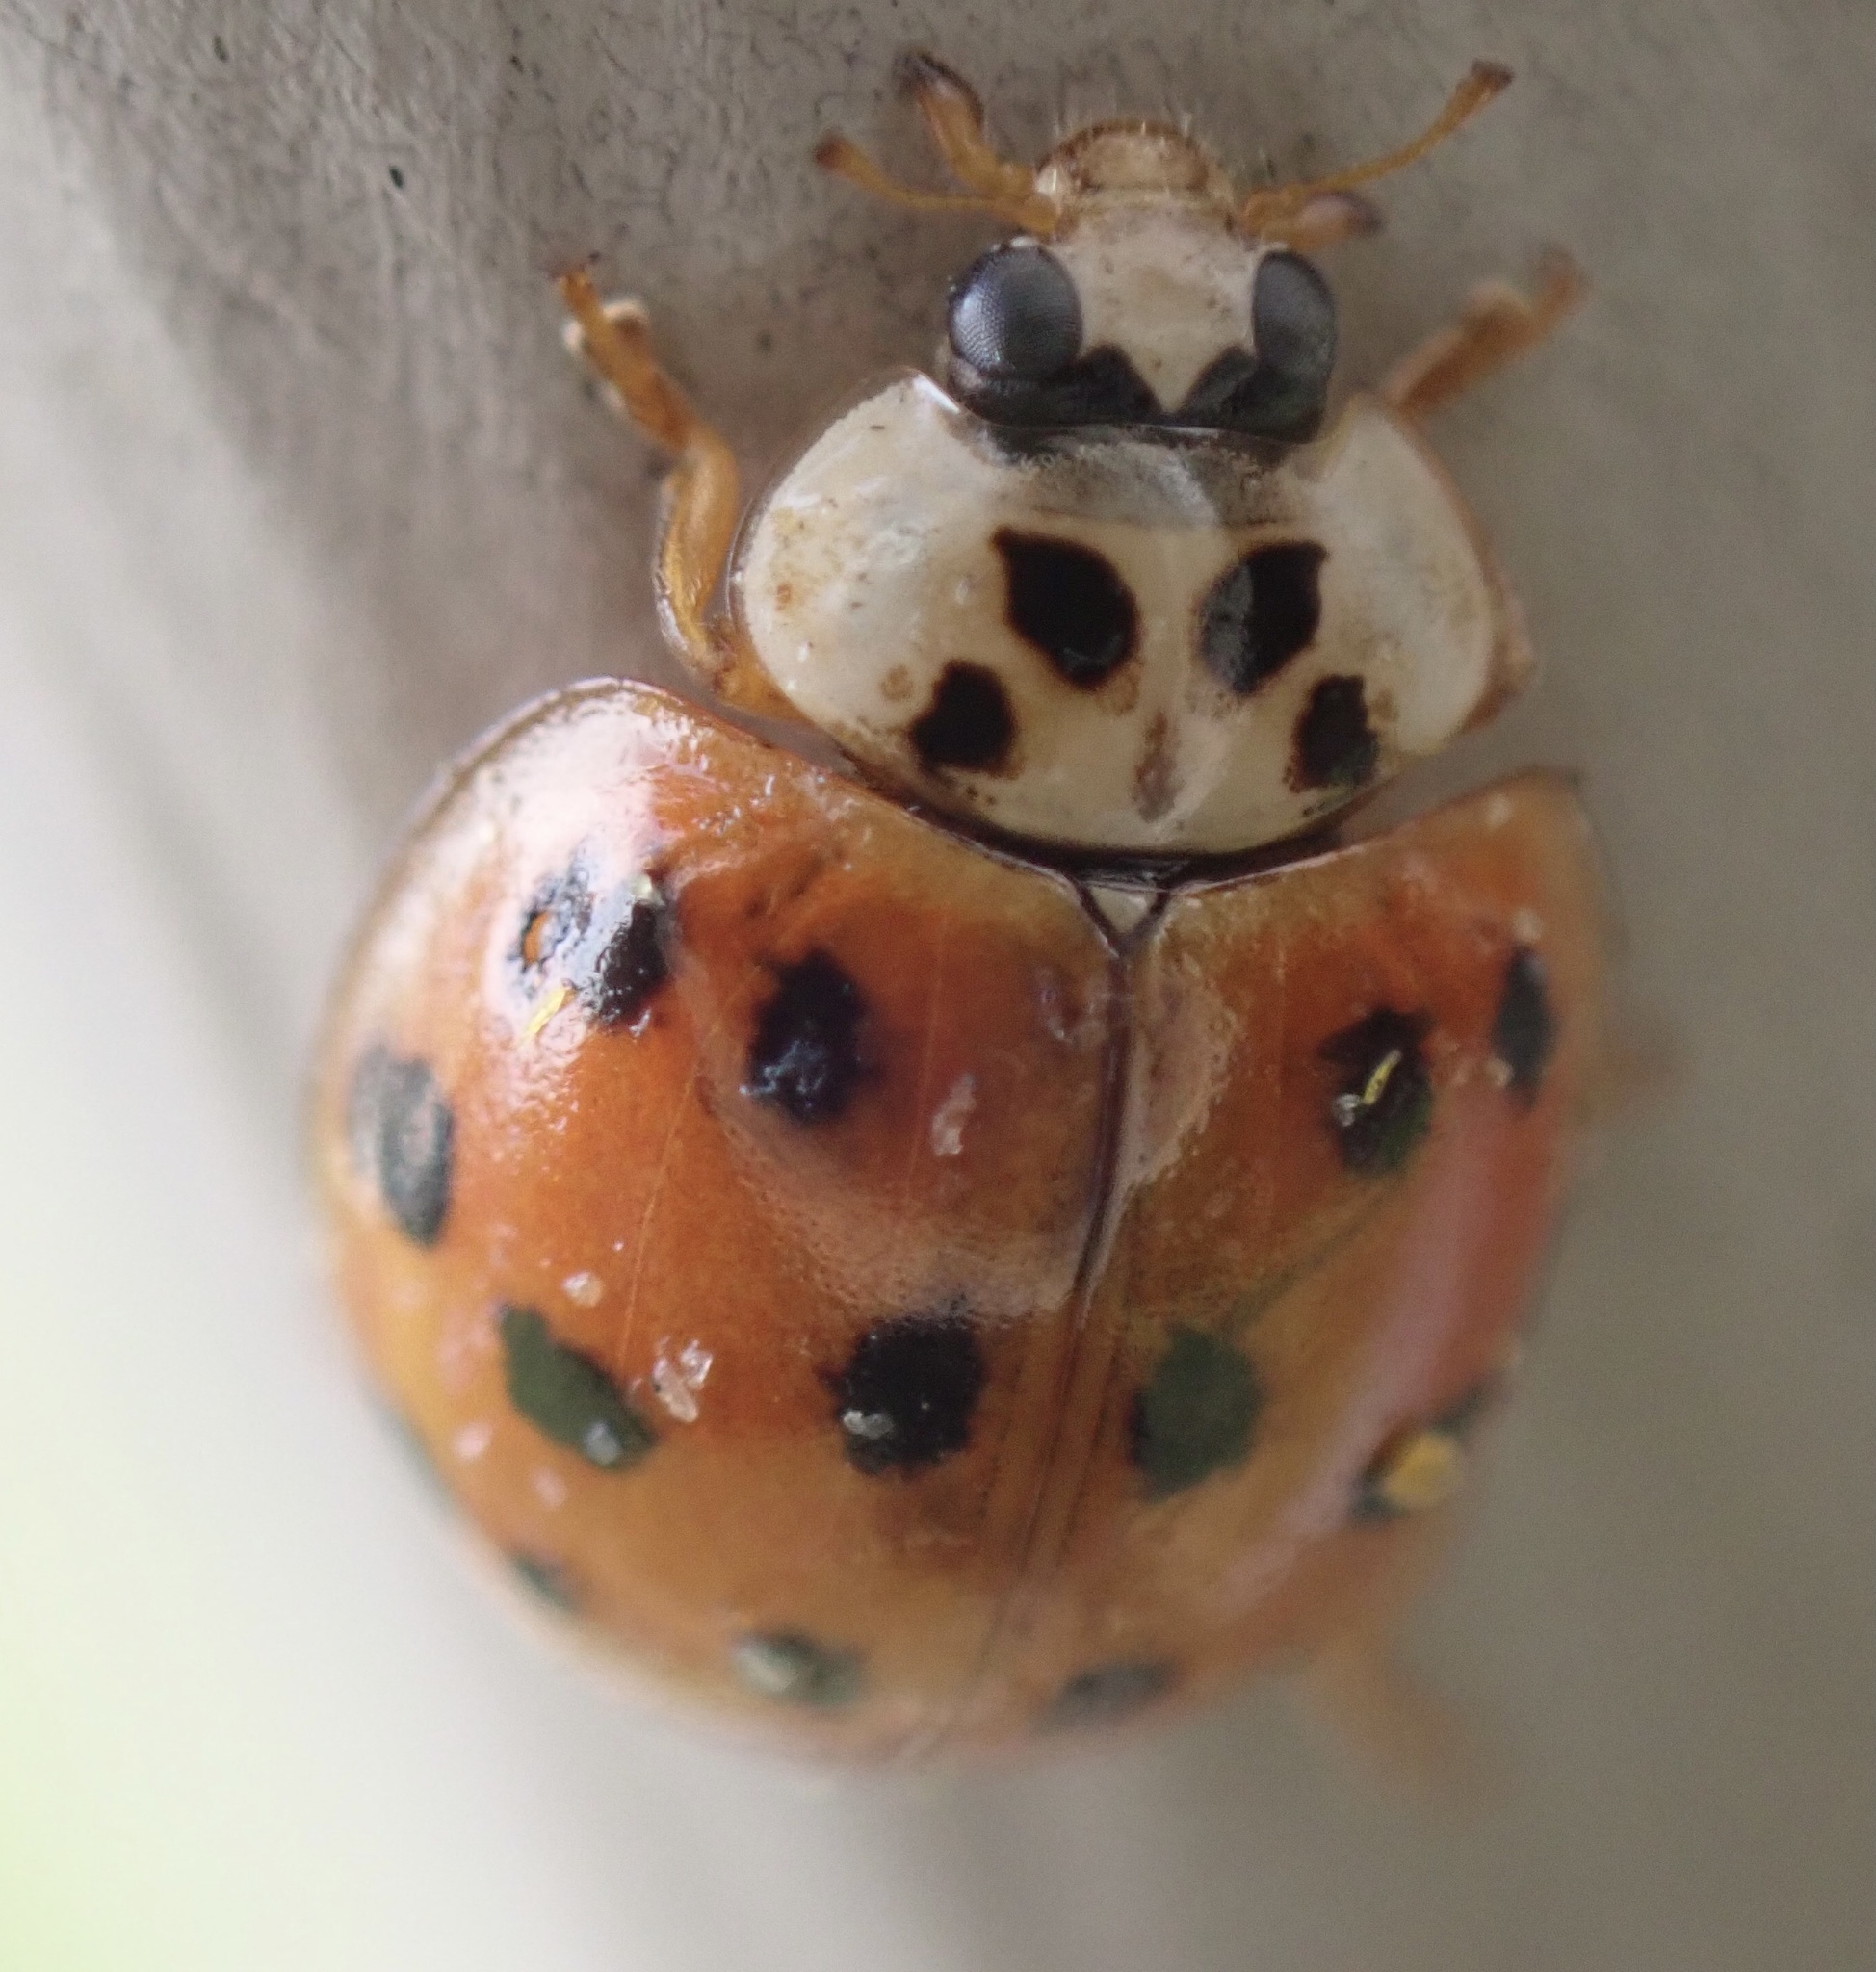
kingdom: Animalia
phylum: Arthropoda
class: Insecta
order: Coleoptera
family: Coccinellidae
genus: Harmonia
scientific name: Harmonia axyridis
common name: Harlequin ladybird
